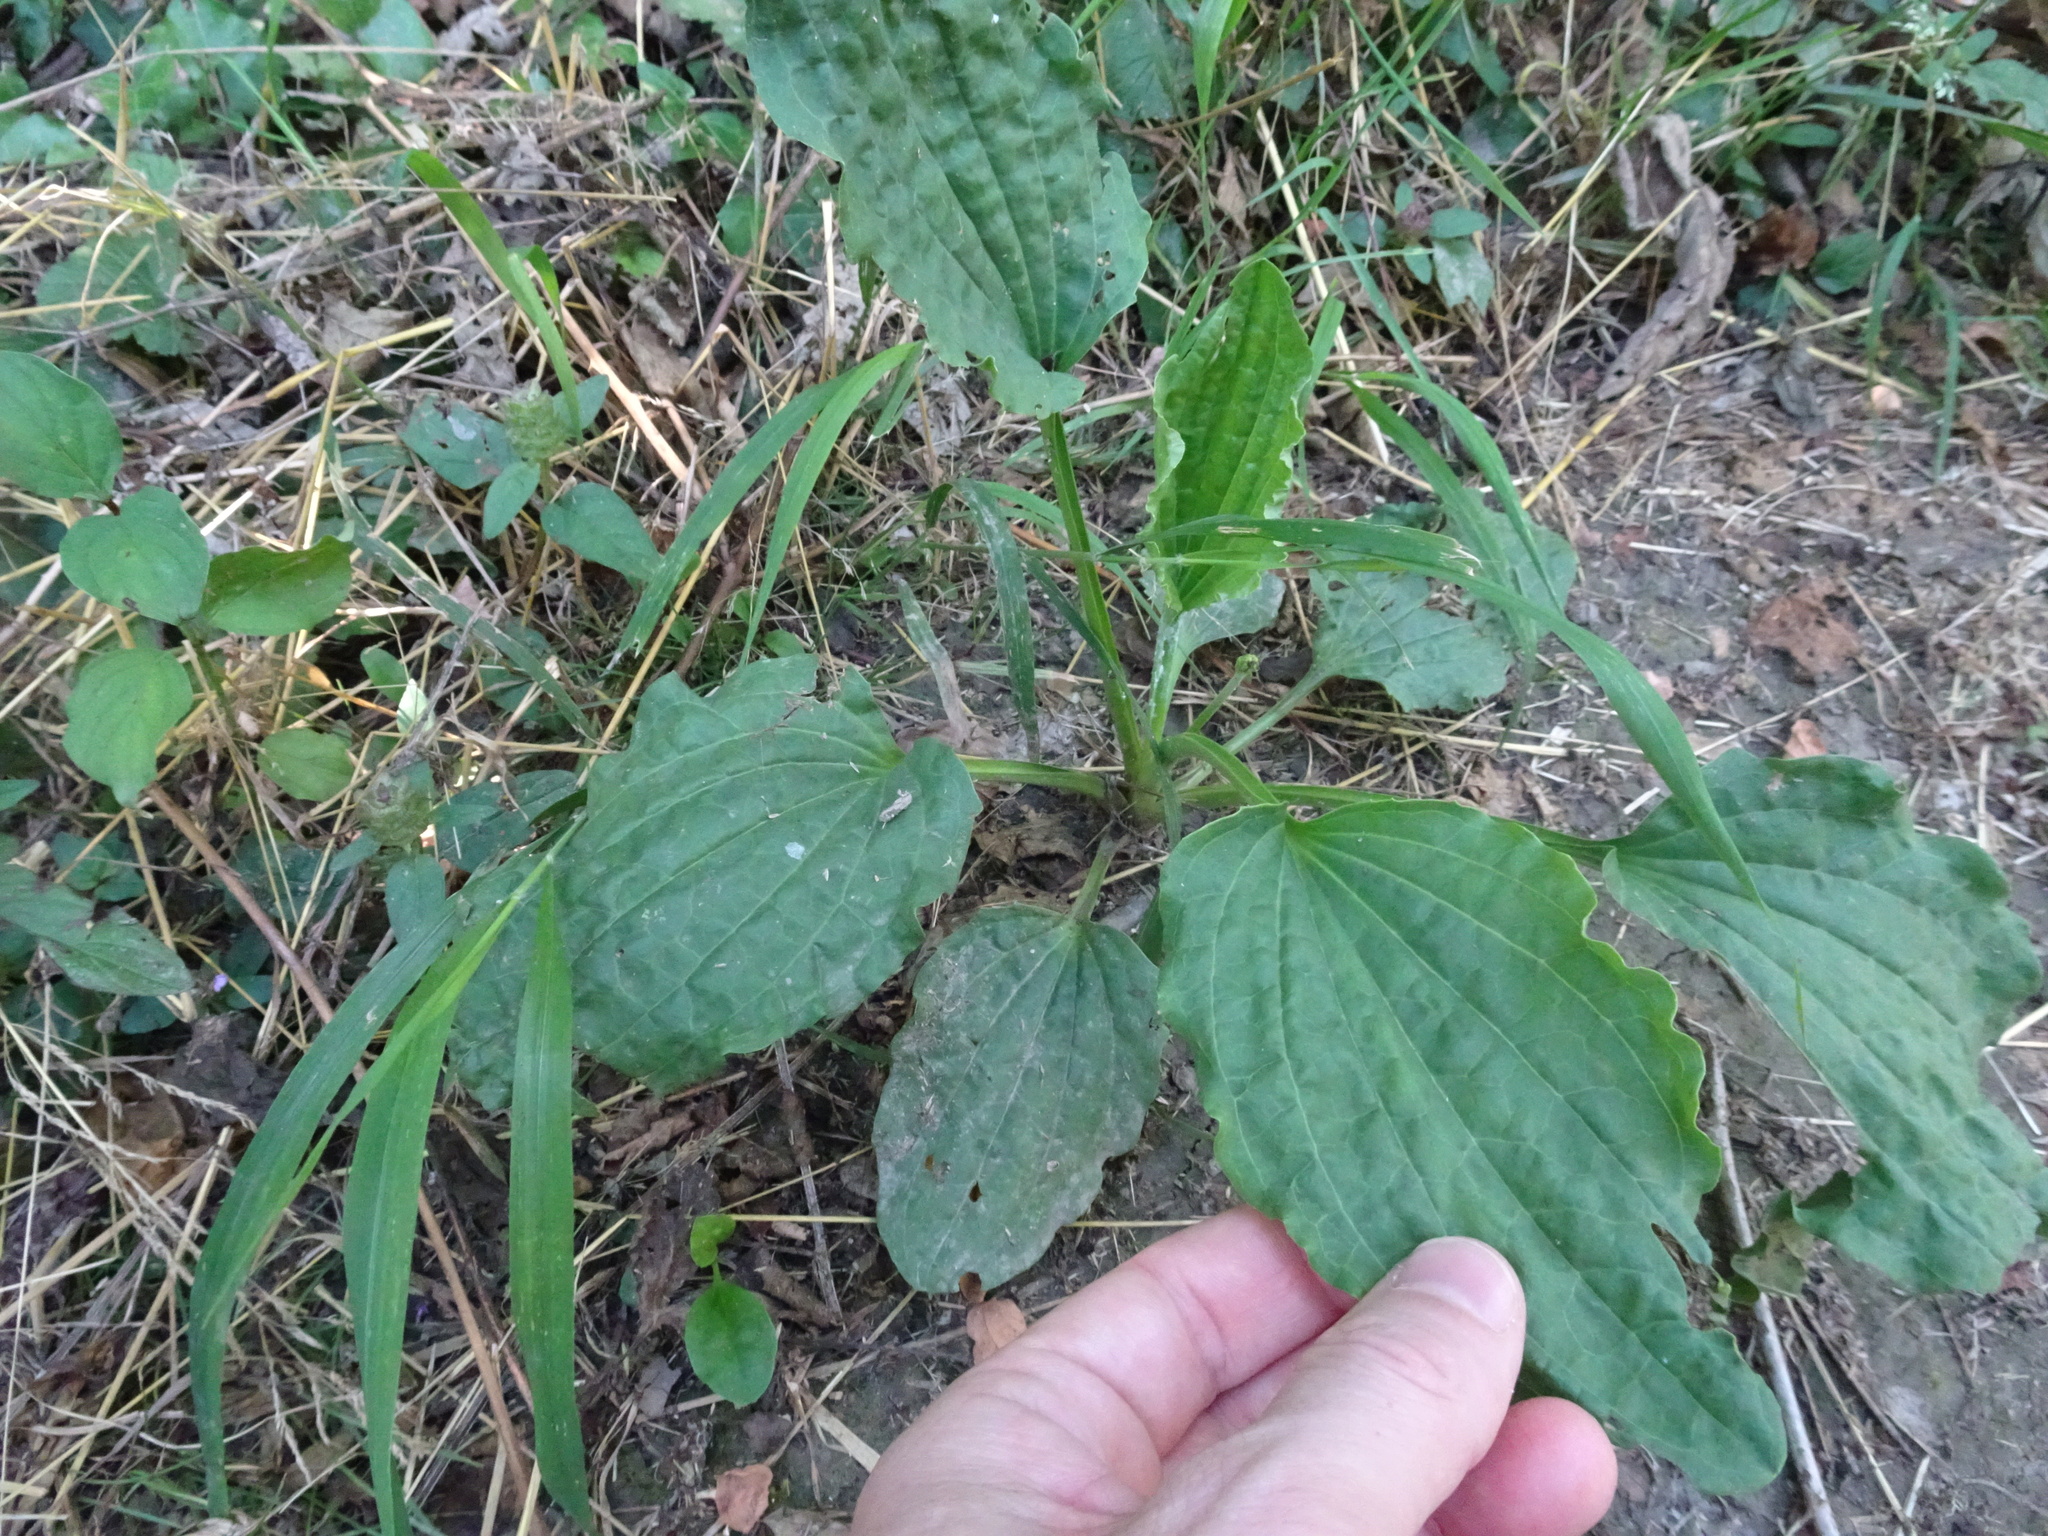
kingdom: Plantae
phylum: Tracheophyta
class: Magnoliopsida
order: Lamiales
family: Plantaginaceae
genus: Plantago
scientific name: Plantago major
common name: Common plantain
